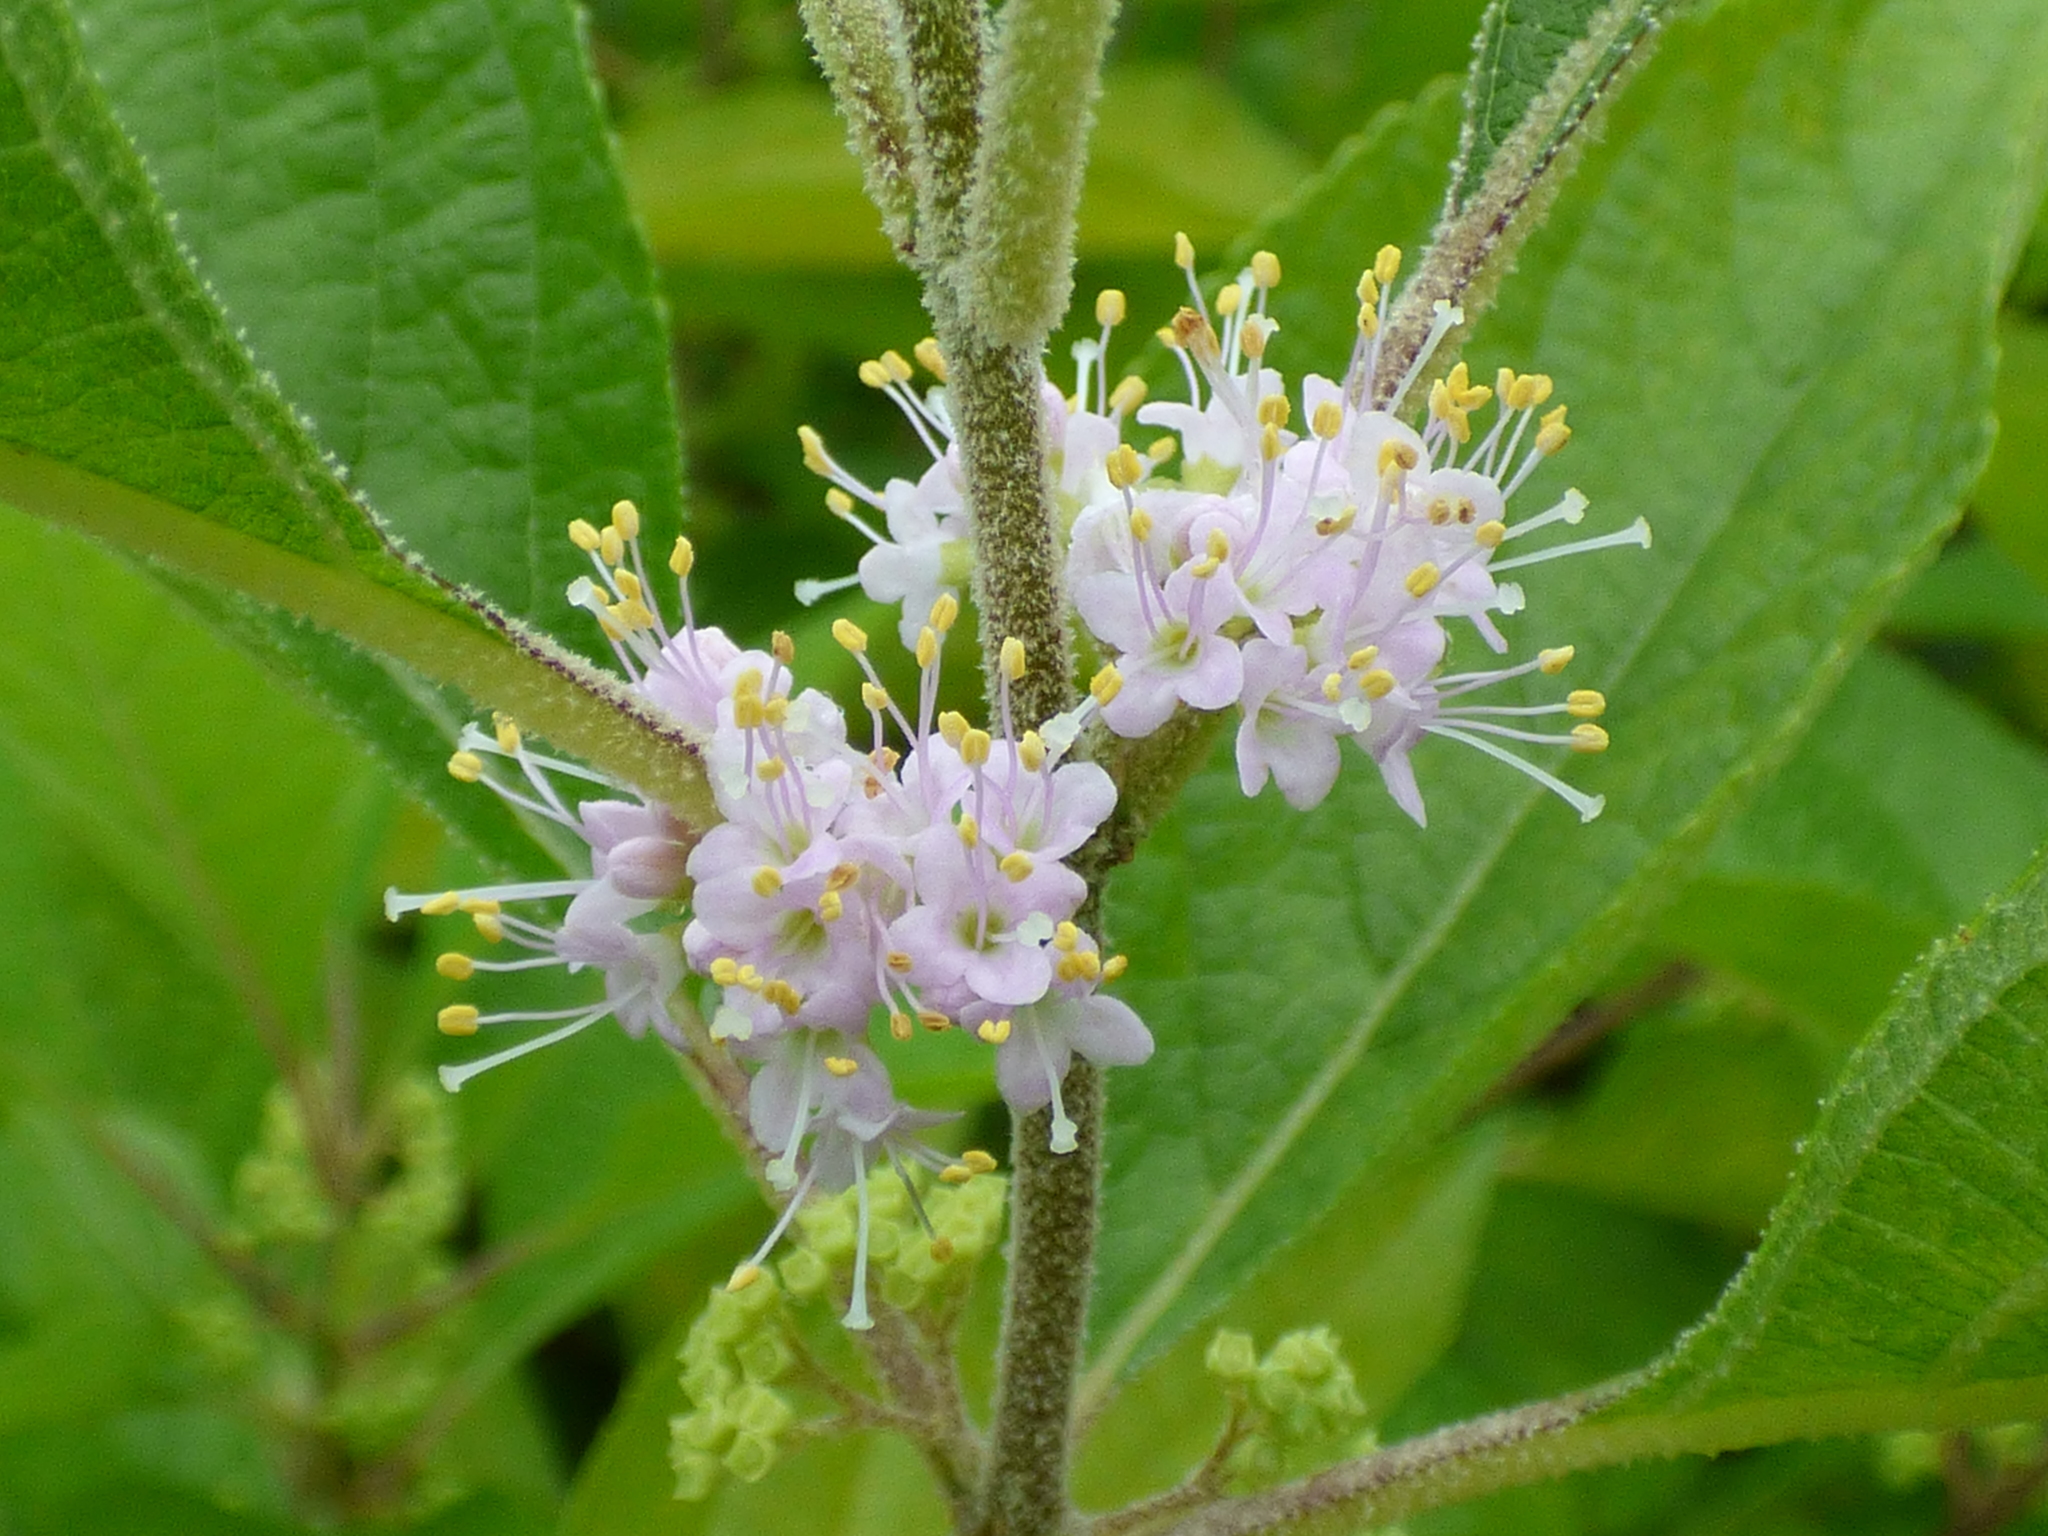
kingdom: Plantae
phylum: Tracheophyta
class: Magnoliopsida
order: Lamiales
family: Lamiaceae
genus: Callicarpa
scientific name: Callicarpa americana
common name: American beautyberry
